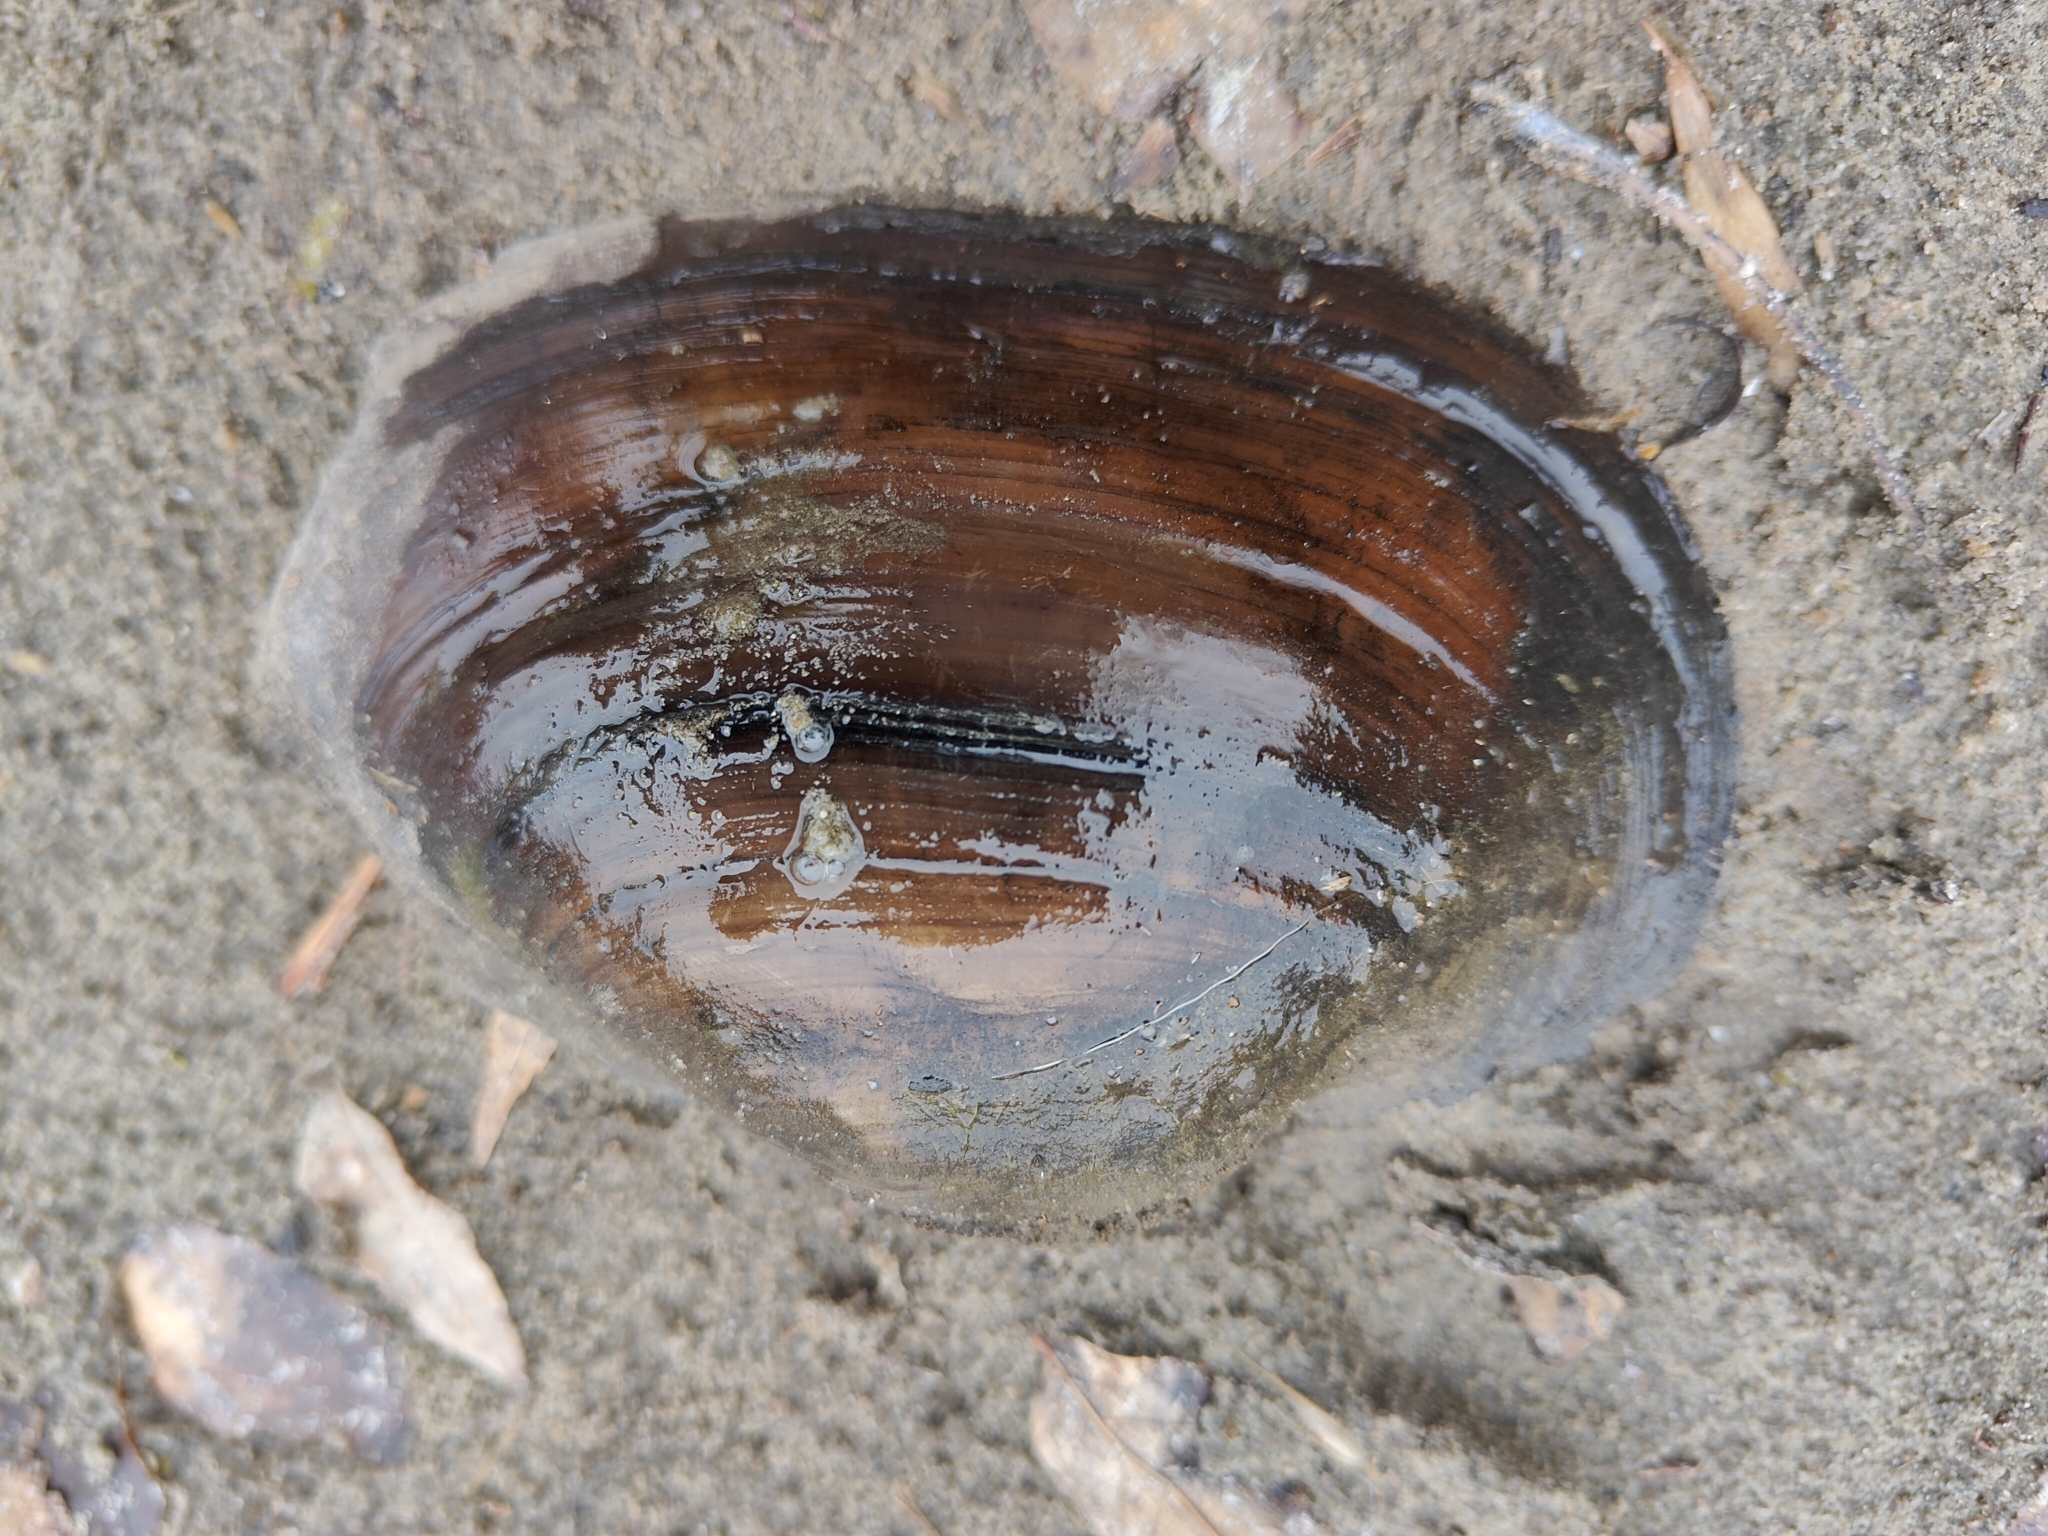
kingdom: Animalia
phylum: Mollusca
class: Bivalvia
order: Unionida
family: Unionidae
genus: Pyganodon
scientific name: Pyganodon grandis
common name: Giant floater
